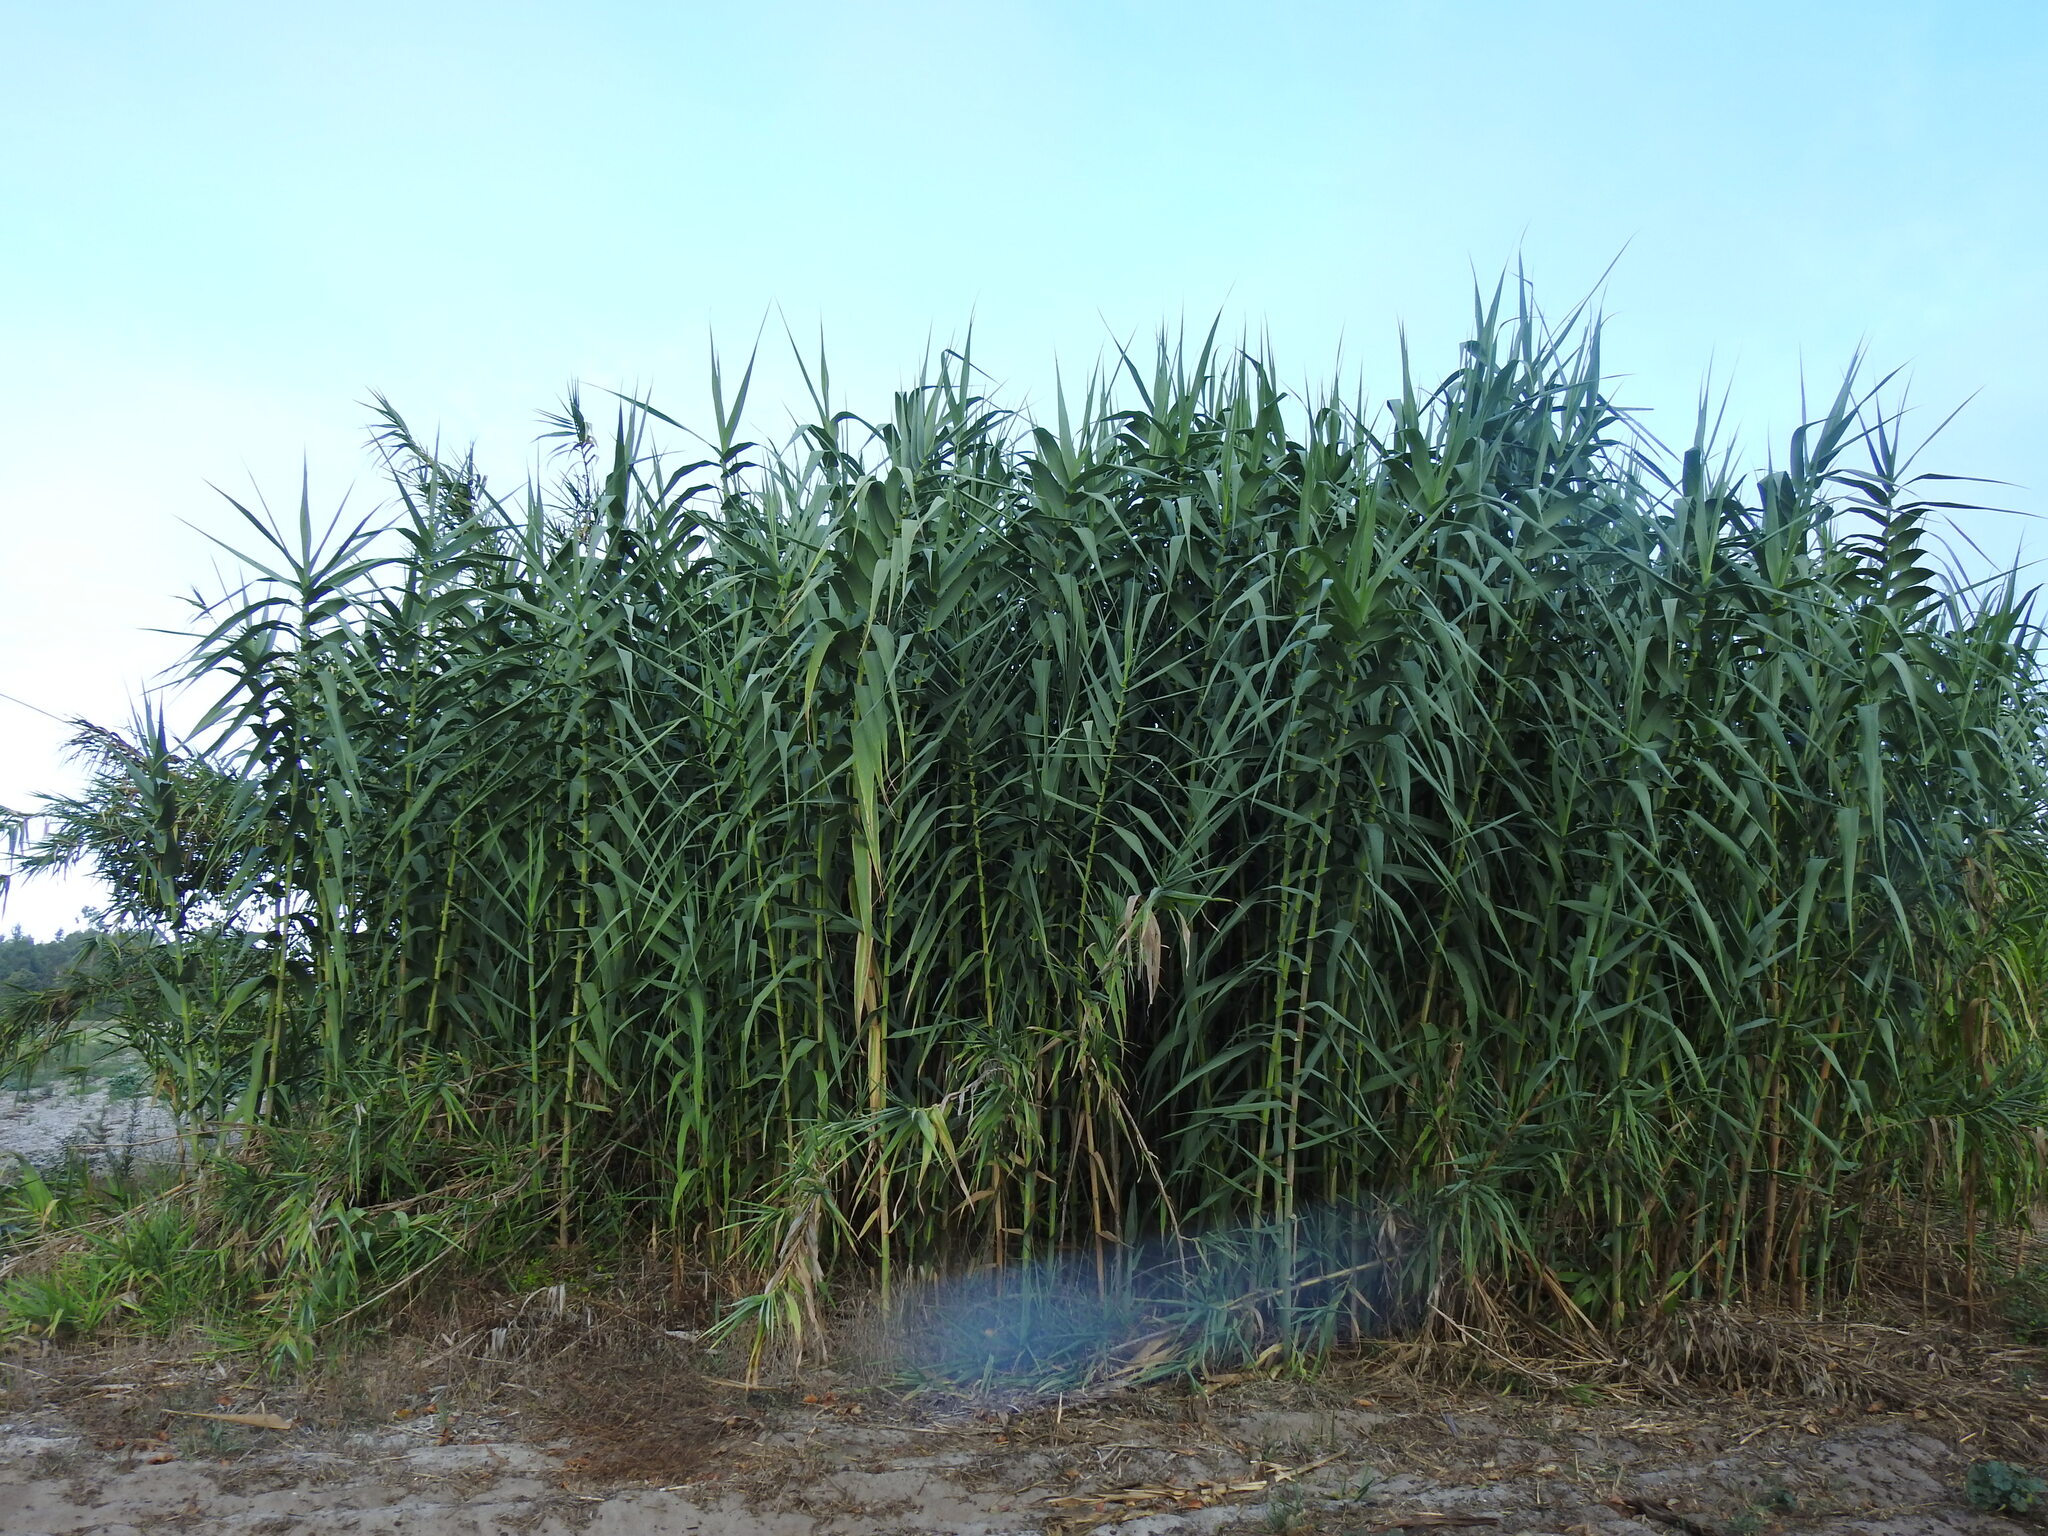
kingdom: Plantae
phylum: Tracheophyta
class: Liliopsida
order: Poales
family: Poaceae
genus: Arundo
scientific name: Arundo donax
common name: Giant reed
